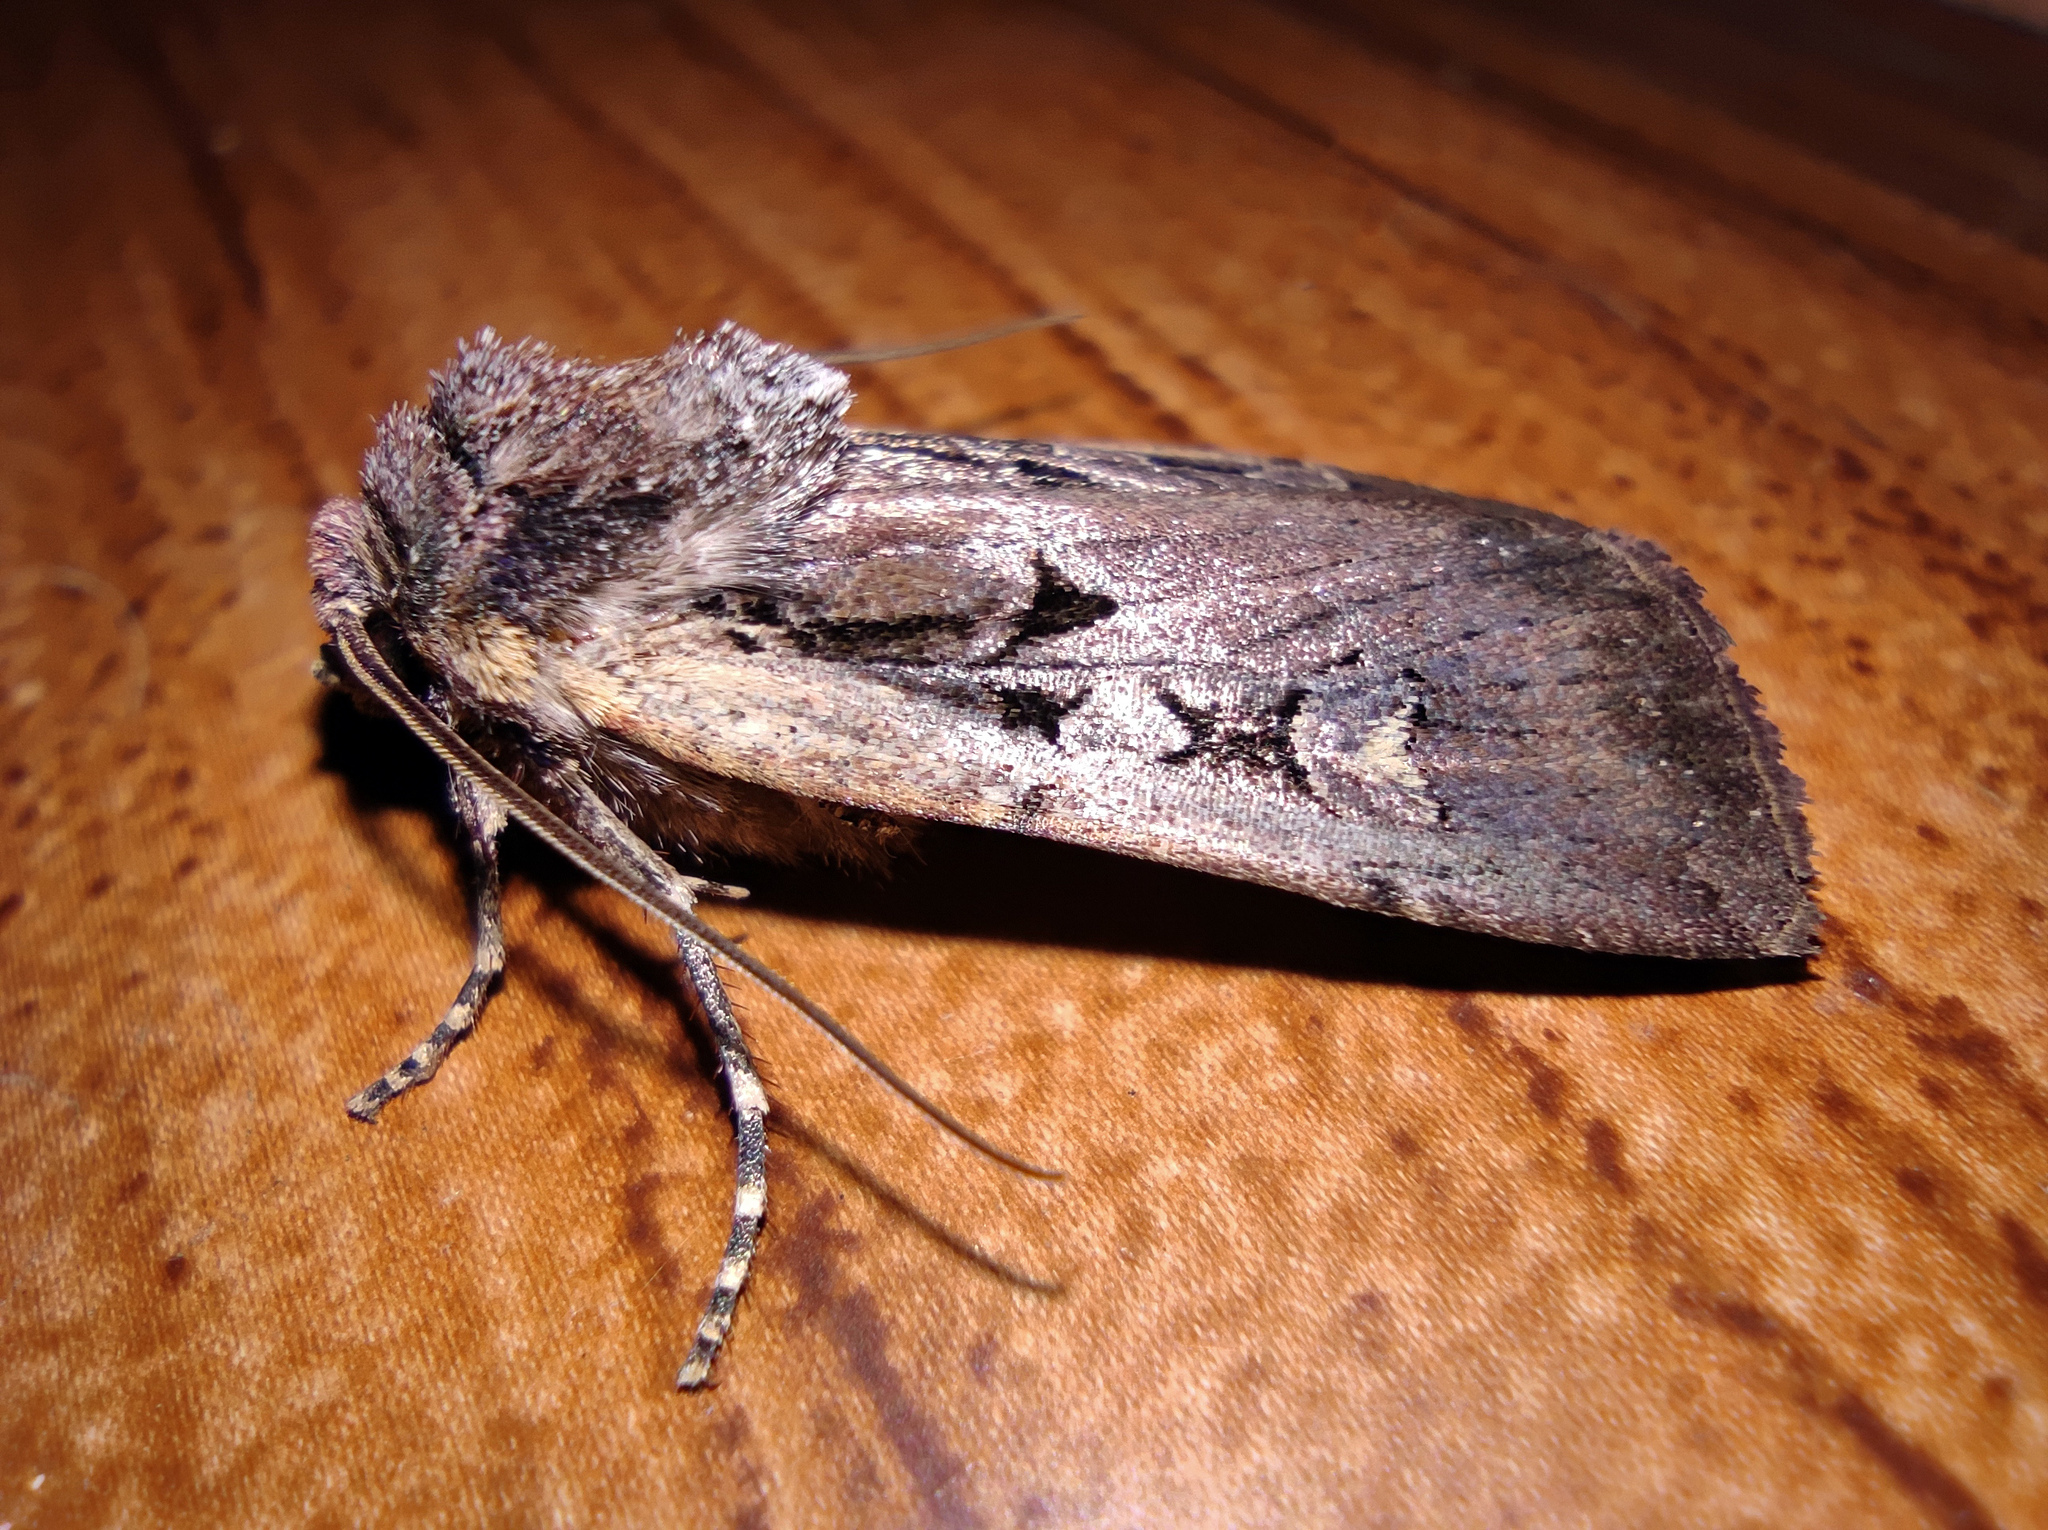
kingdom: Animalia
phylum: Arthropoda
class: Insecta
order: Lepidoptera
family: Noctuidae
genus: Euxoa
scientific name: Euxoa obelisca
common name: Square-spot dart
